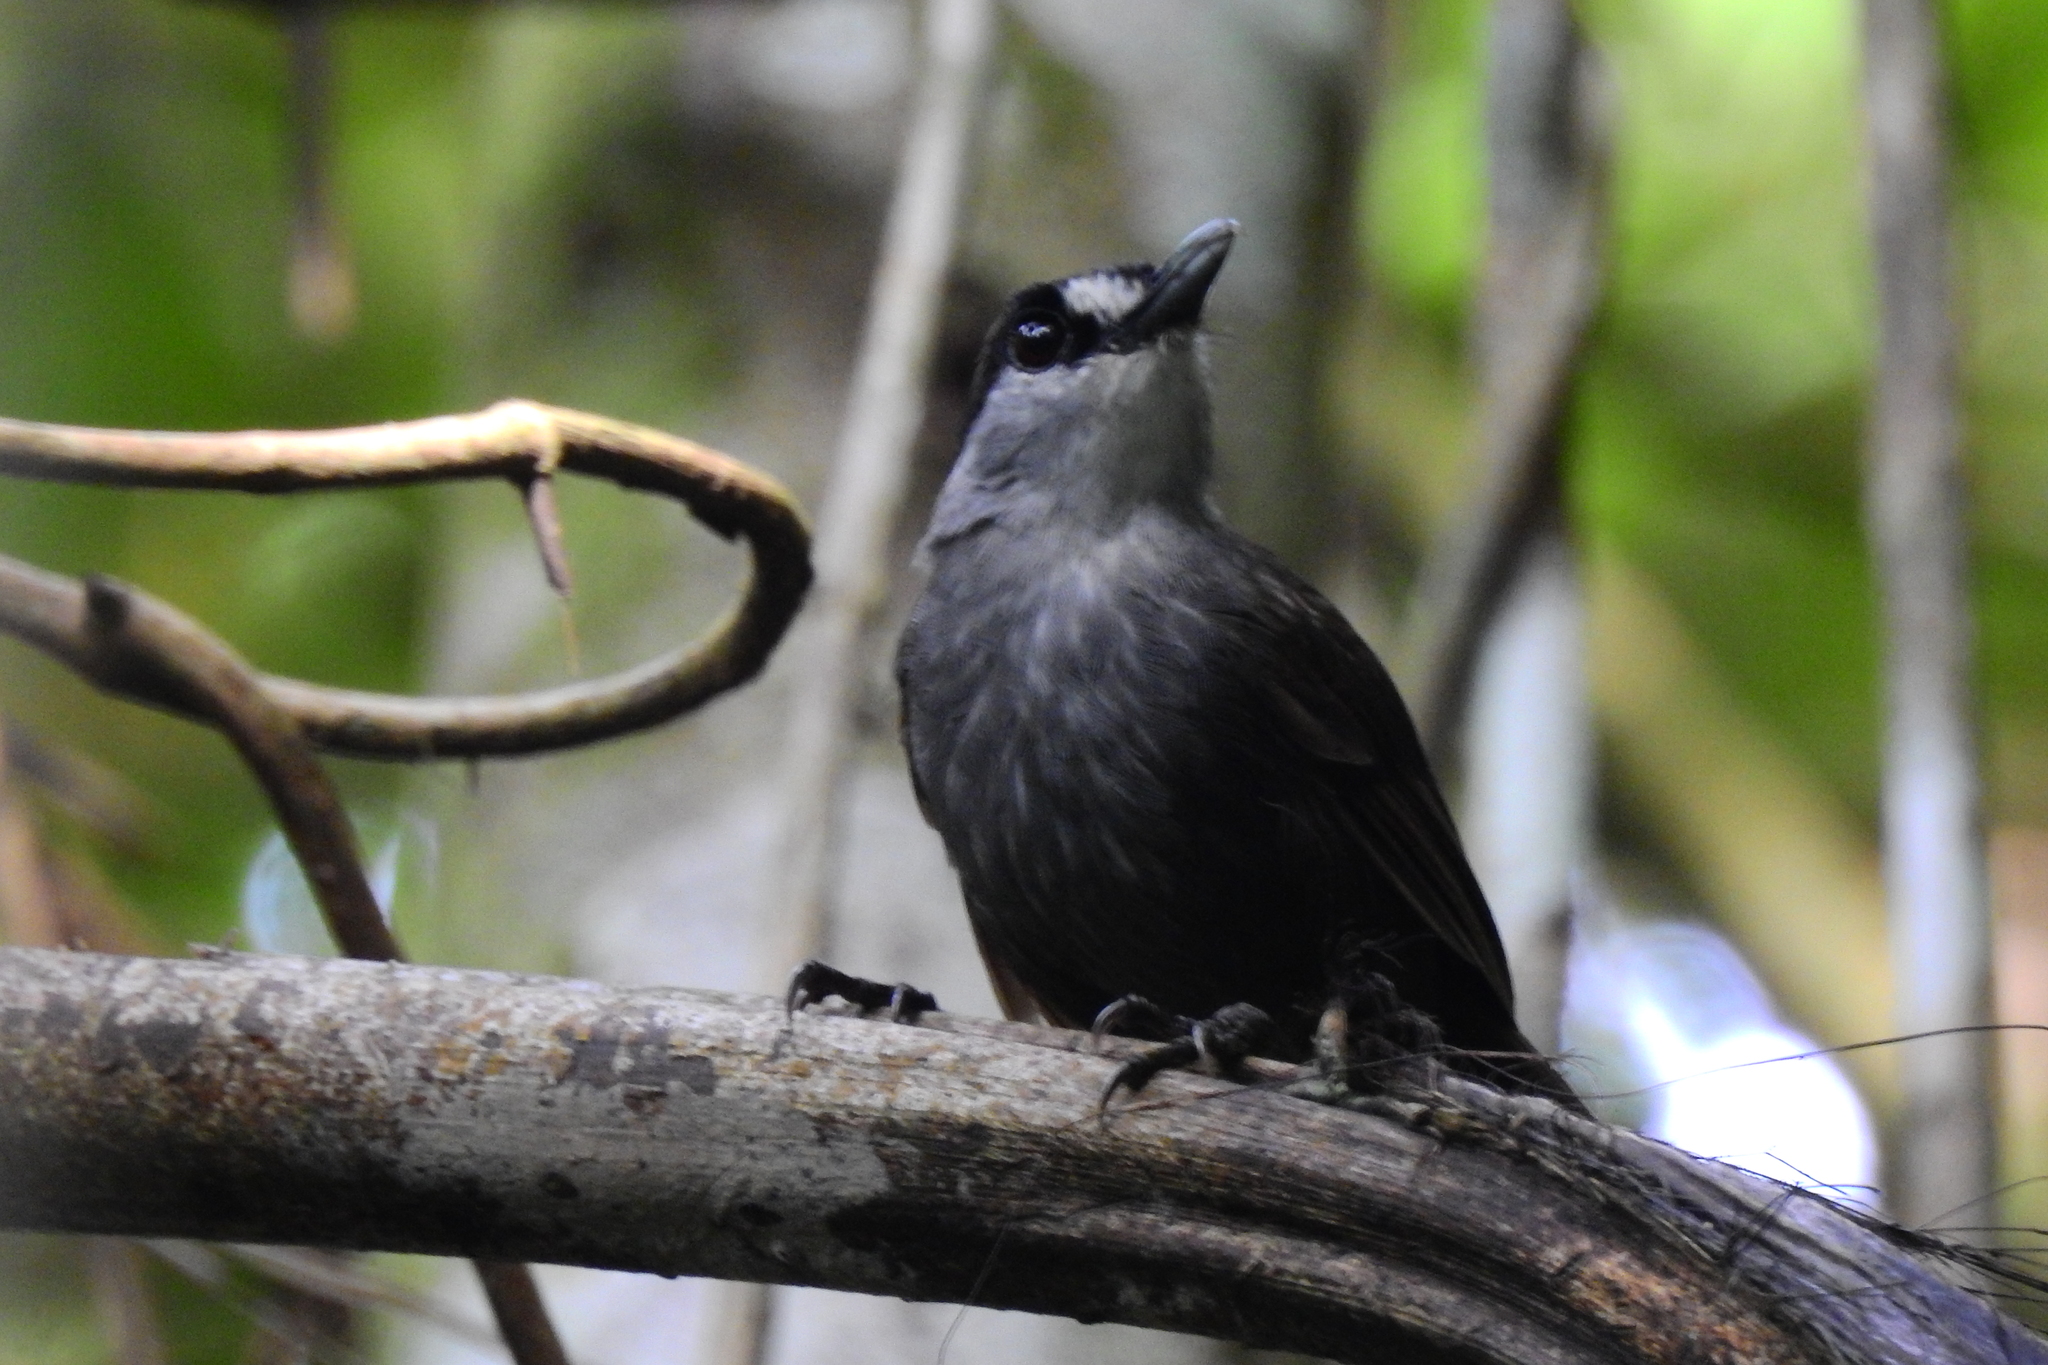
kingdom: Animalia
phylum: Chordata
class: Aves
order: Passeriformes
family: Pellorneidae
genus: Malacocincla
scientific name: Malacocincla perspicillata
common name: Black-browed babbler
